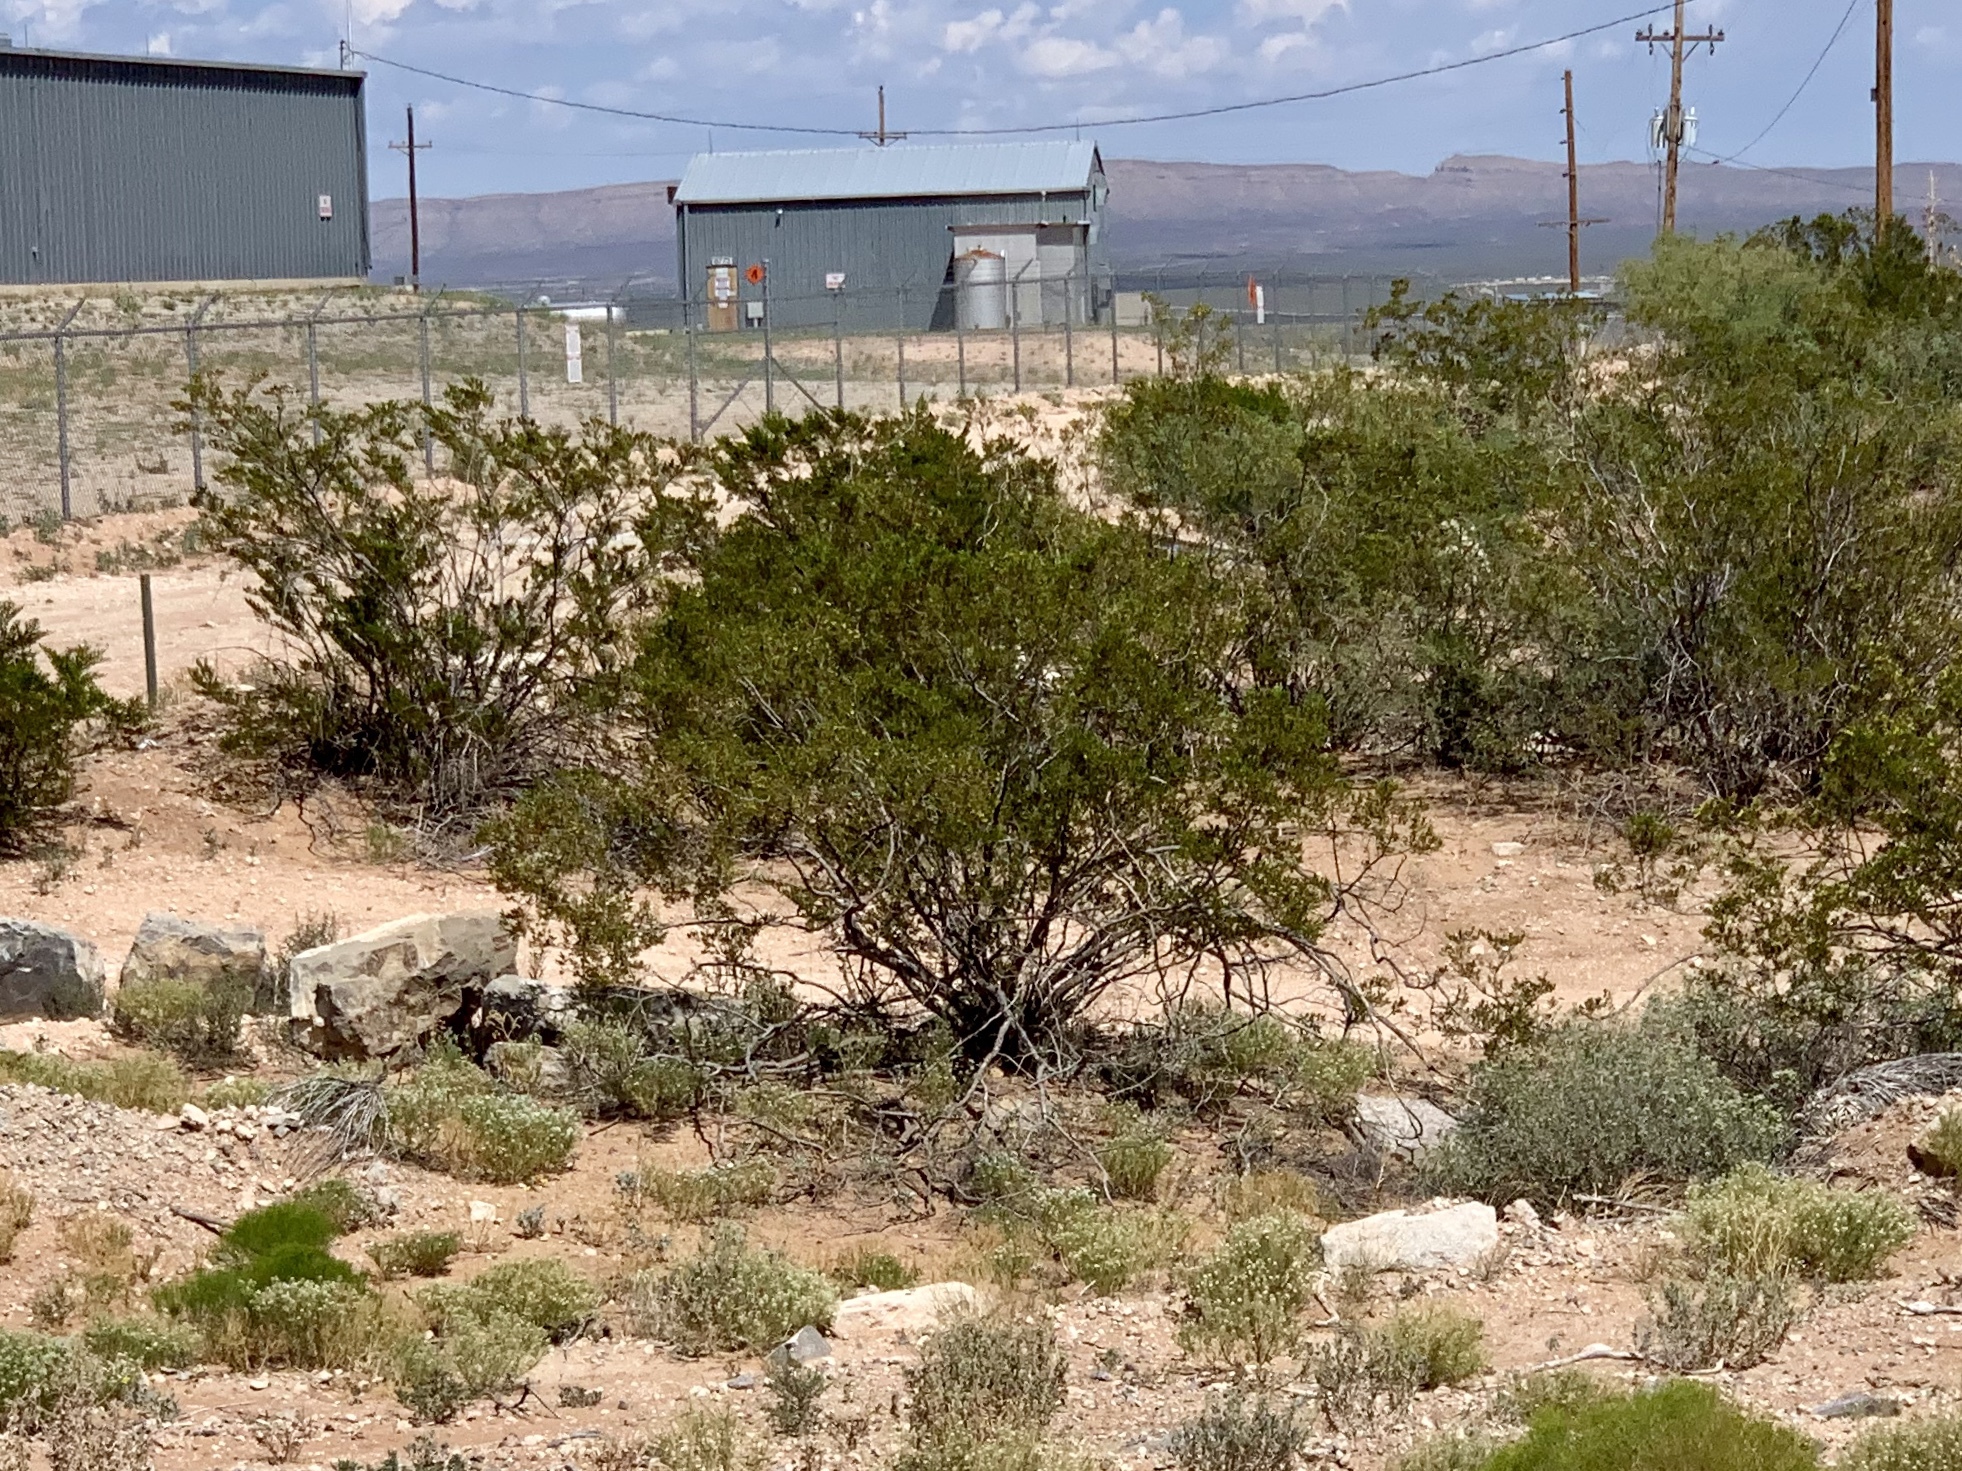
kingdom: Plantae
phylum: Tracheophyta
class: Magnoliopsida
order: Zygophyllales
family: Zygophyllaceae
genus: Larrea
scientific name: Larrea tridentata
